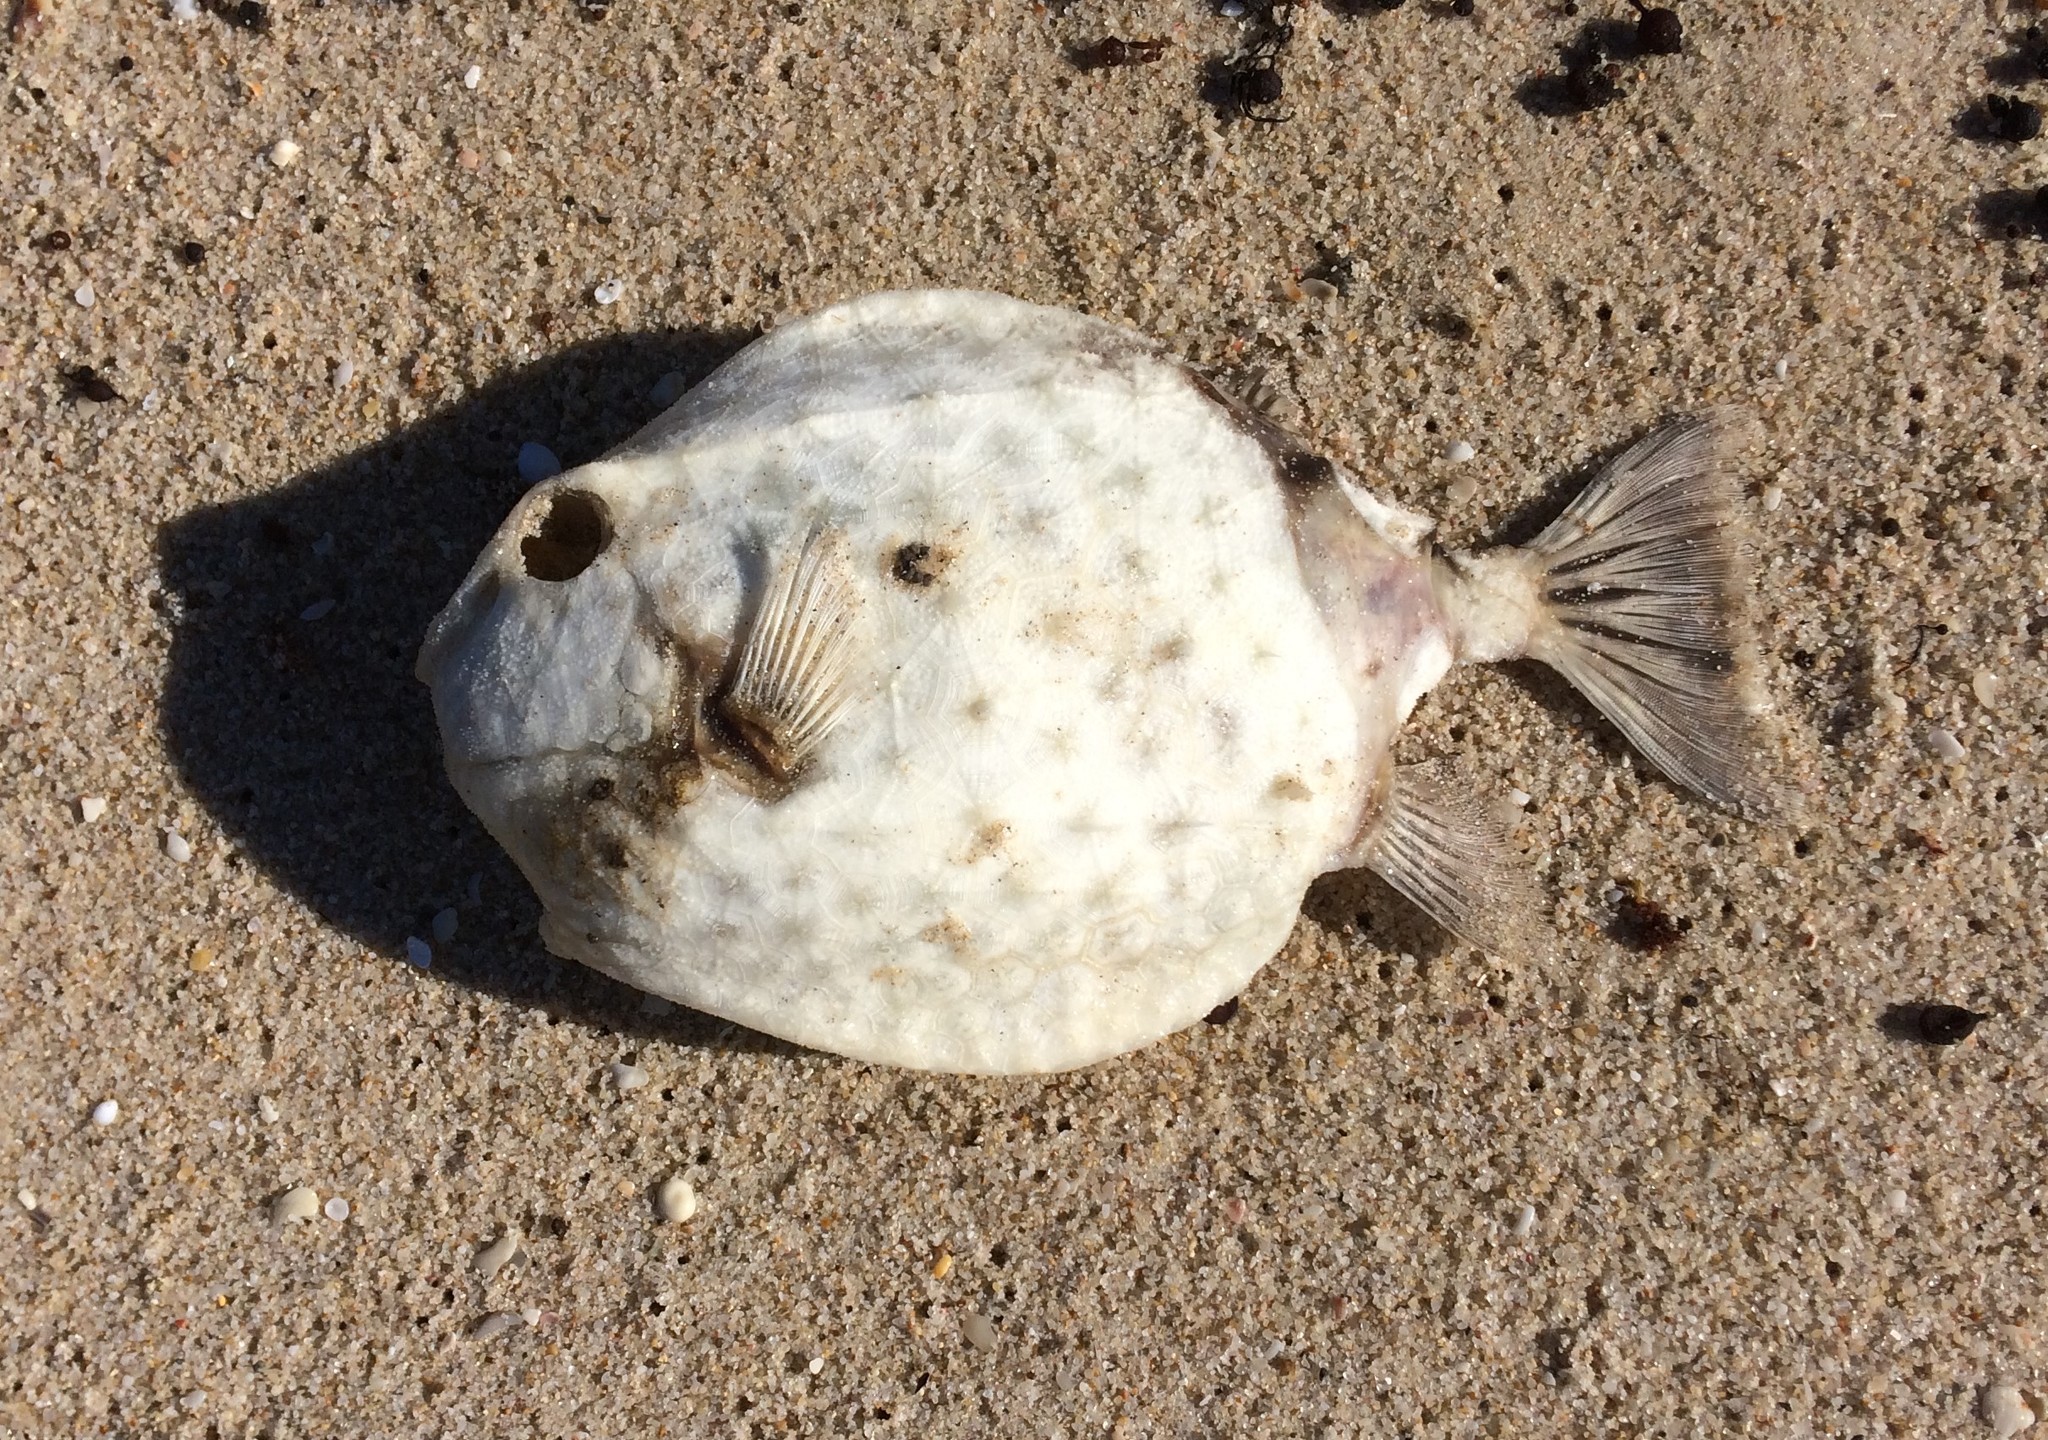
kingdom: Animalia
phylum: Chordata
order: Tetraodontiformes
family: Aracanidae
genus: Anoplocapros
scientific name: Anoplocapros amygdaloides
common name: Blue boxfish
